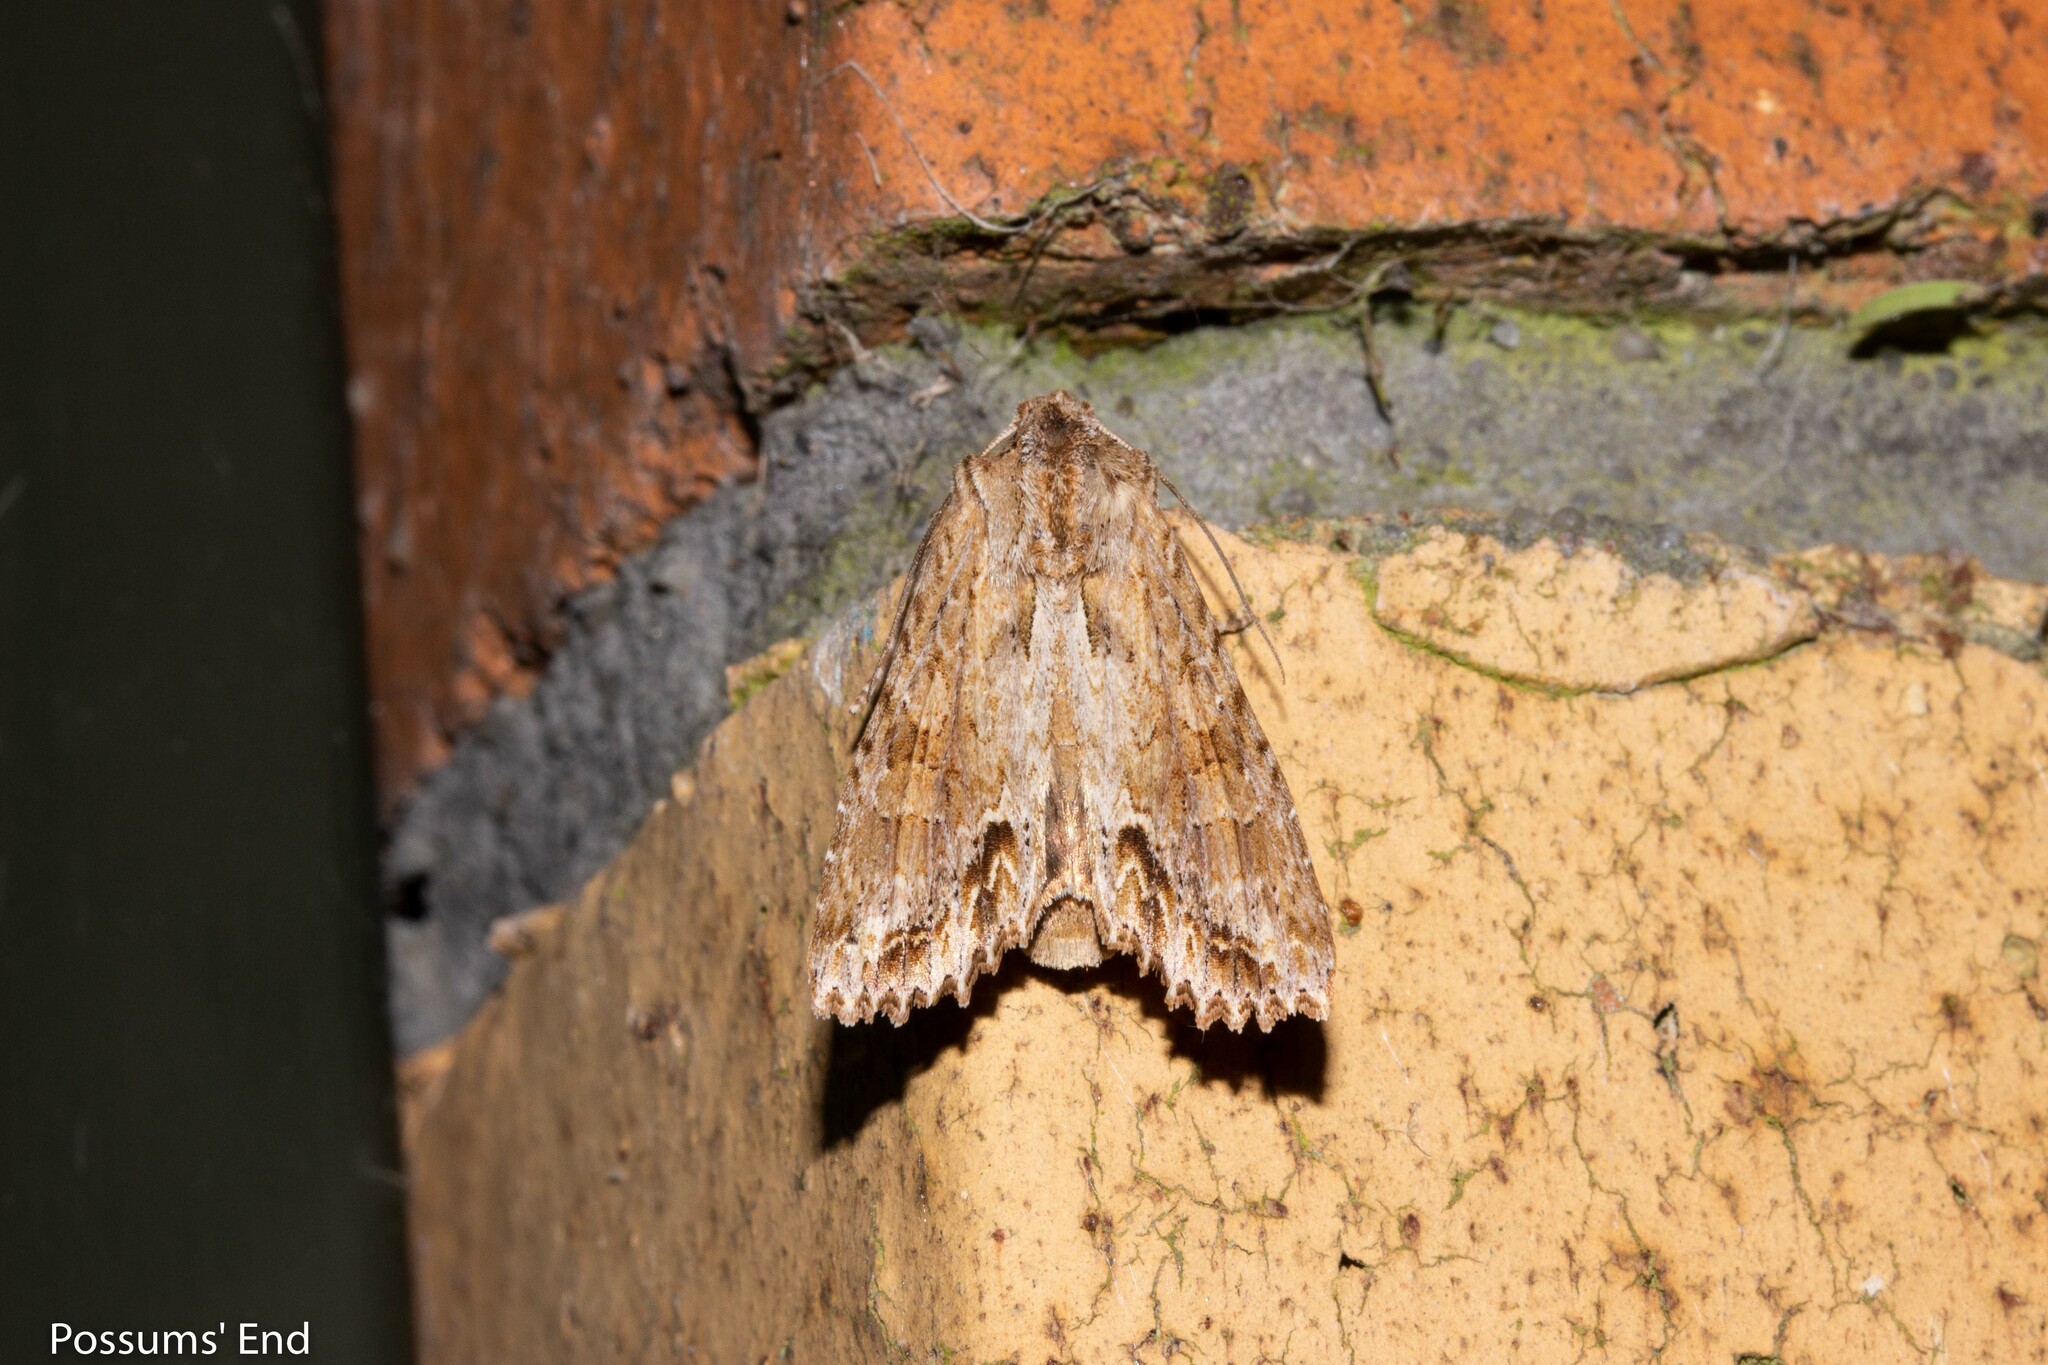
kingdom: Animalia
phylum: Arthropoda
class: Insecta
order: Lepidoptera
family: Noctuidae
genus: Ichneutica
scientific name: Ichneutica mollis
